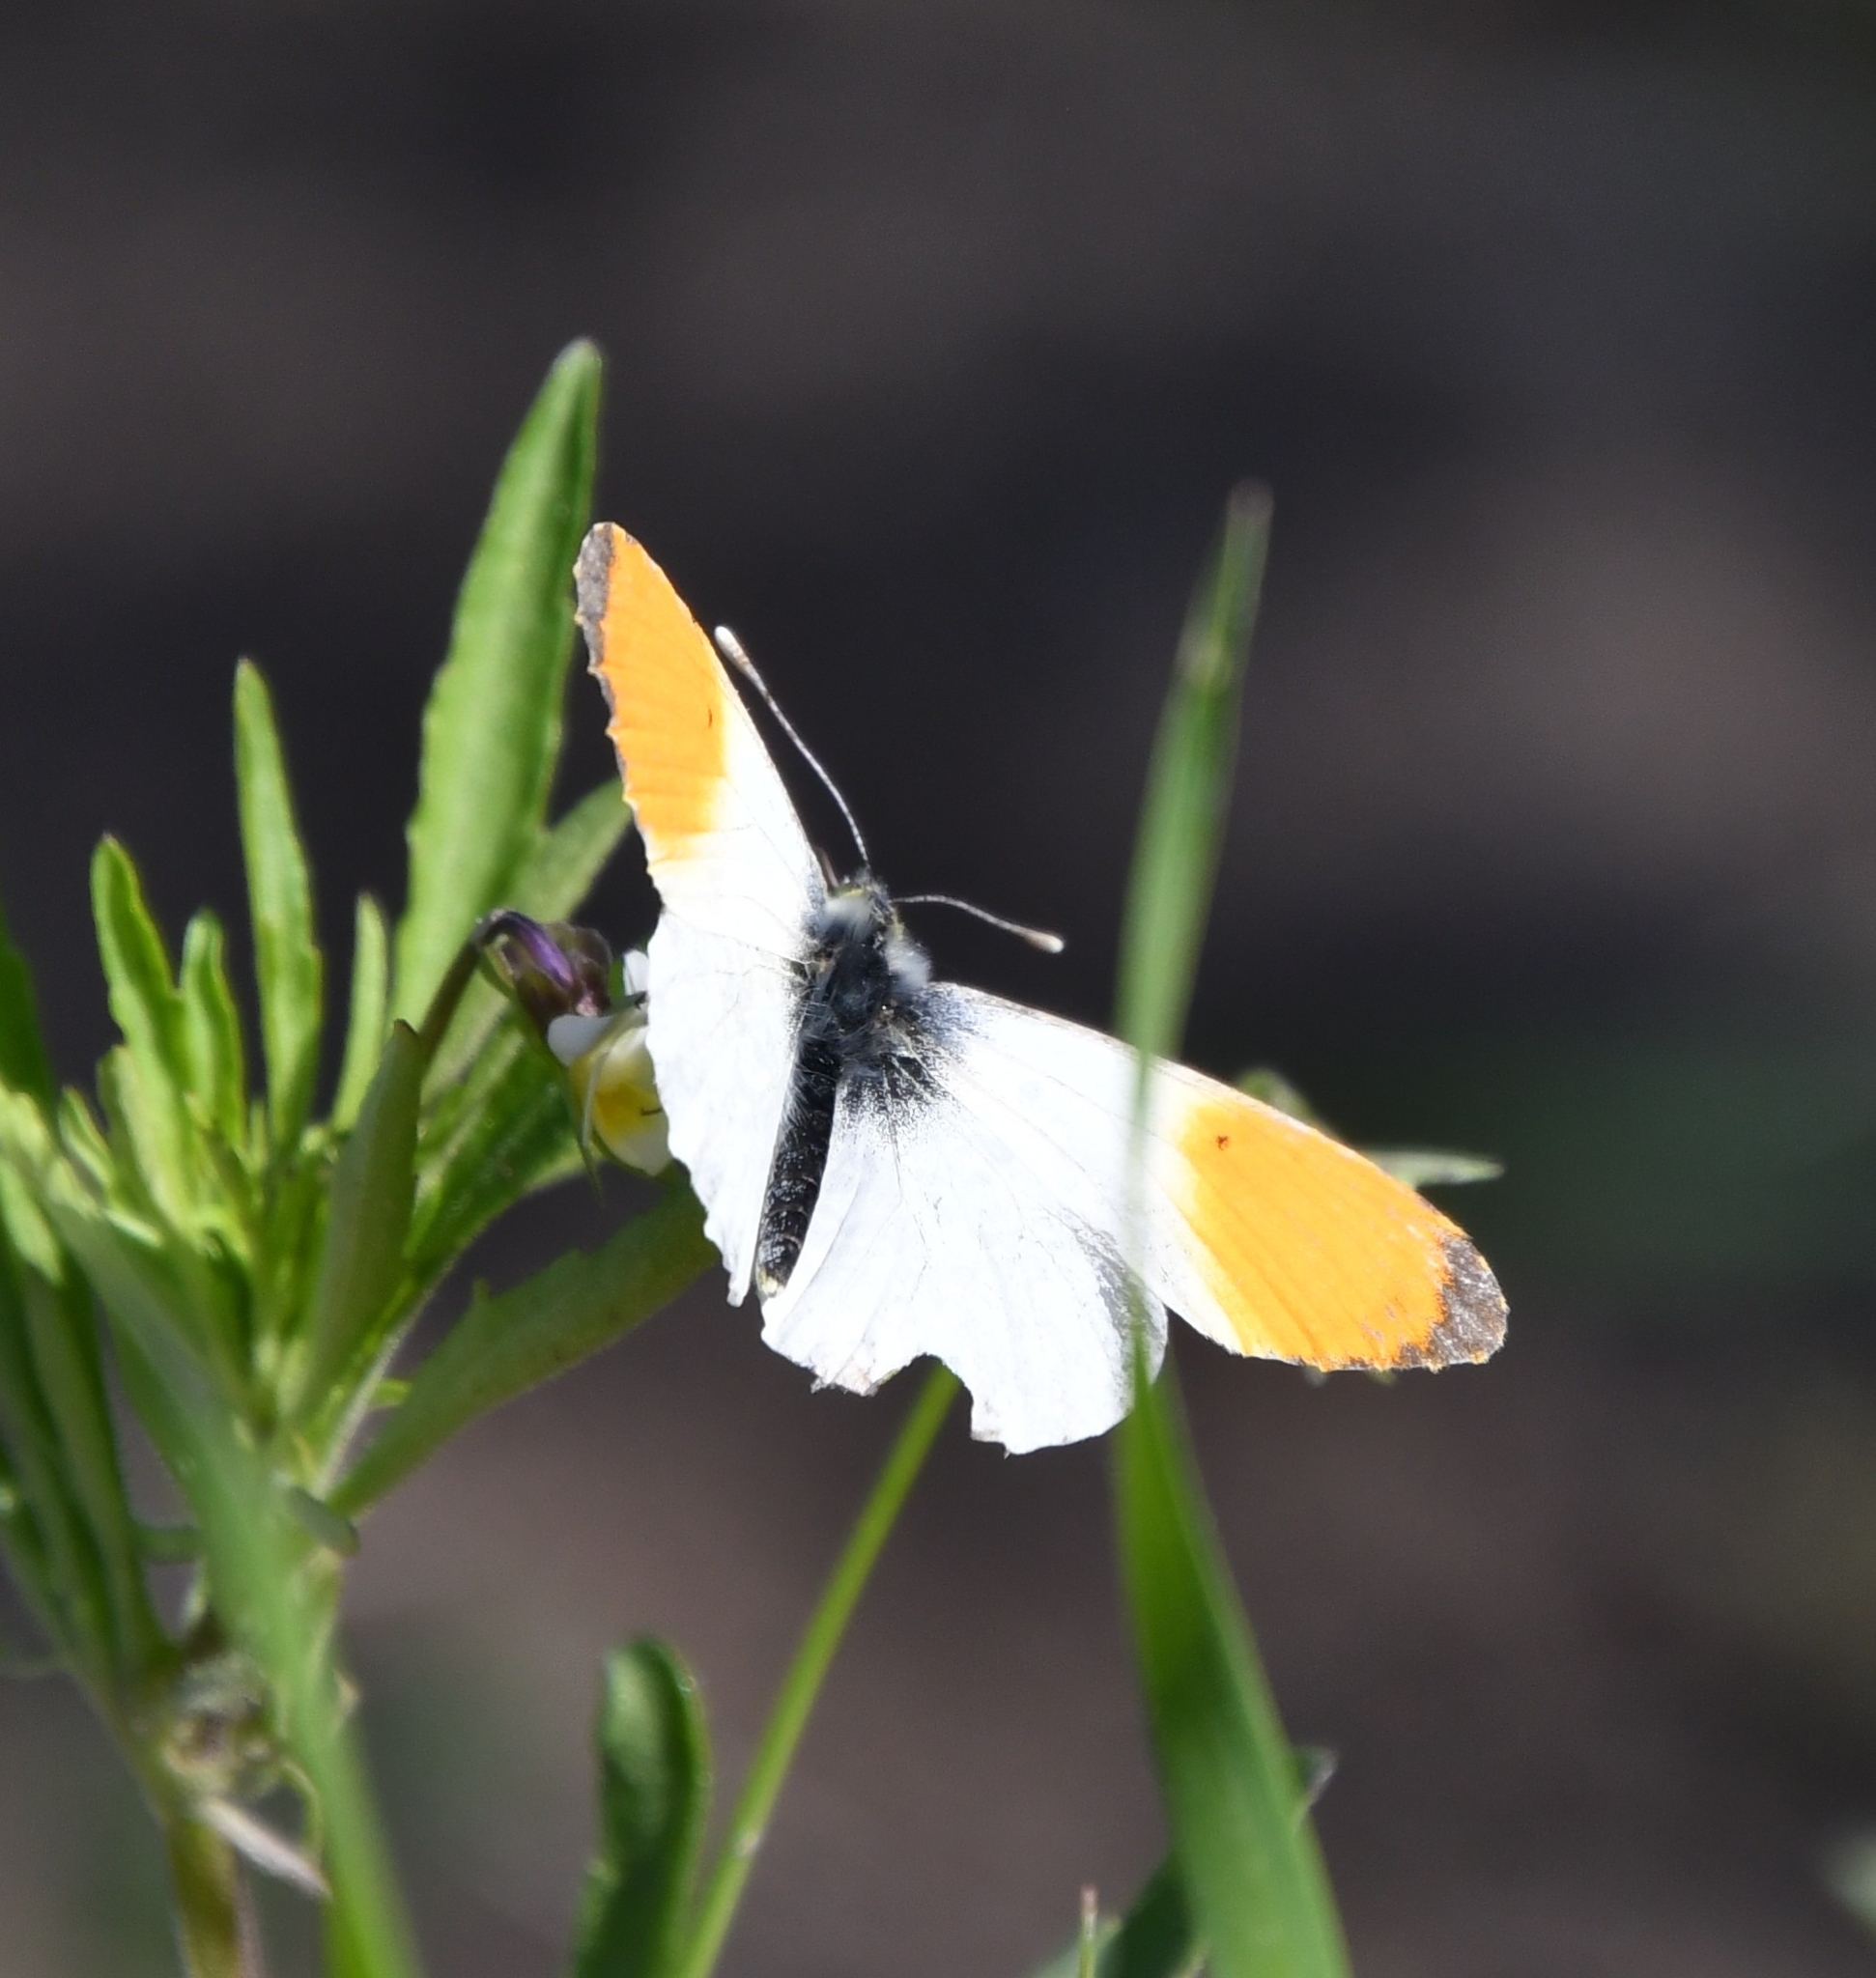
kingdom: Animalia
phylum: Arthropoda
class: Insecta
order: Lepidoptera
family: Pieridae
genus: Anthocharis
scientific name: Anthocharis cardamines
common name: Orange-tip
